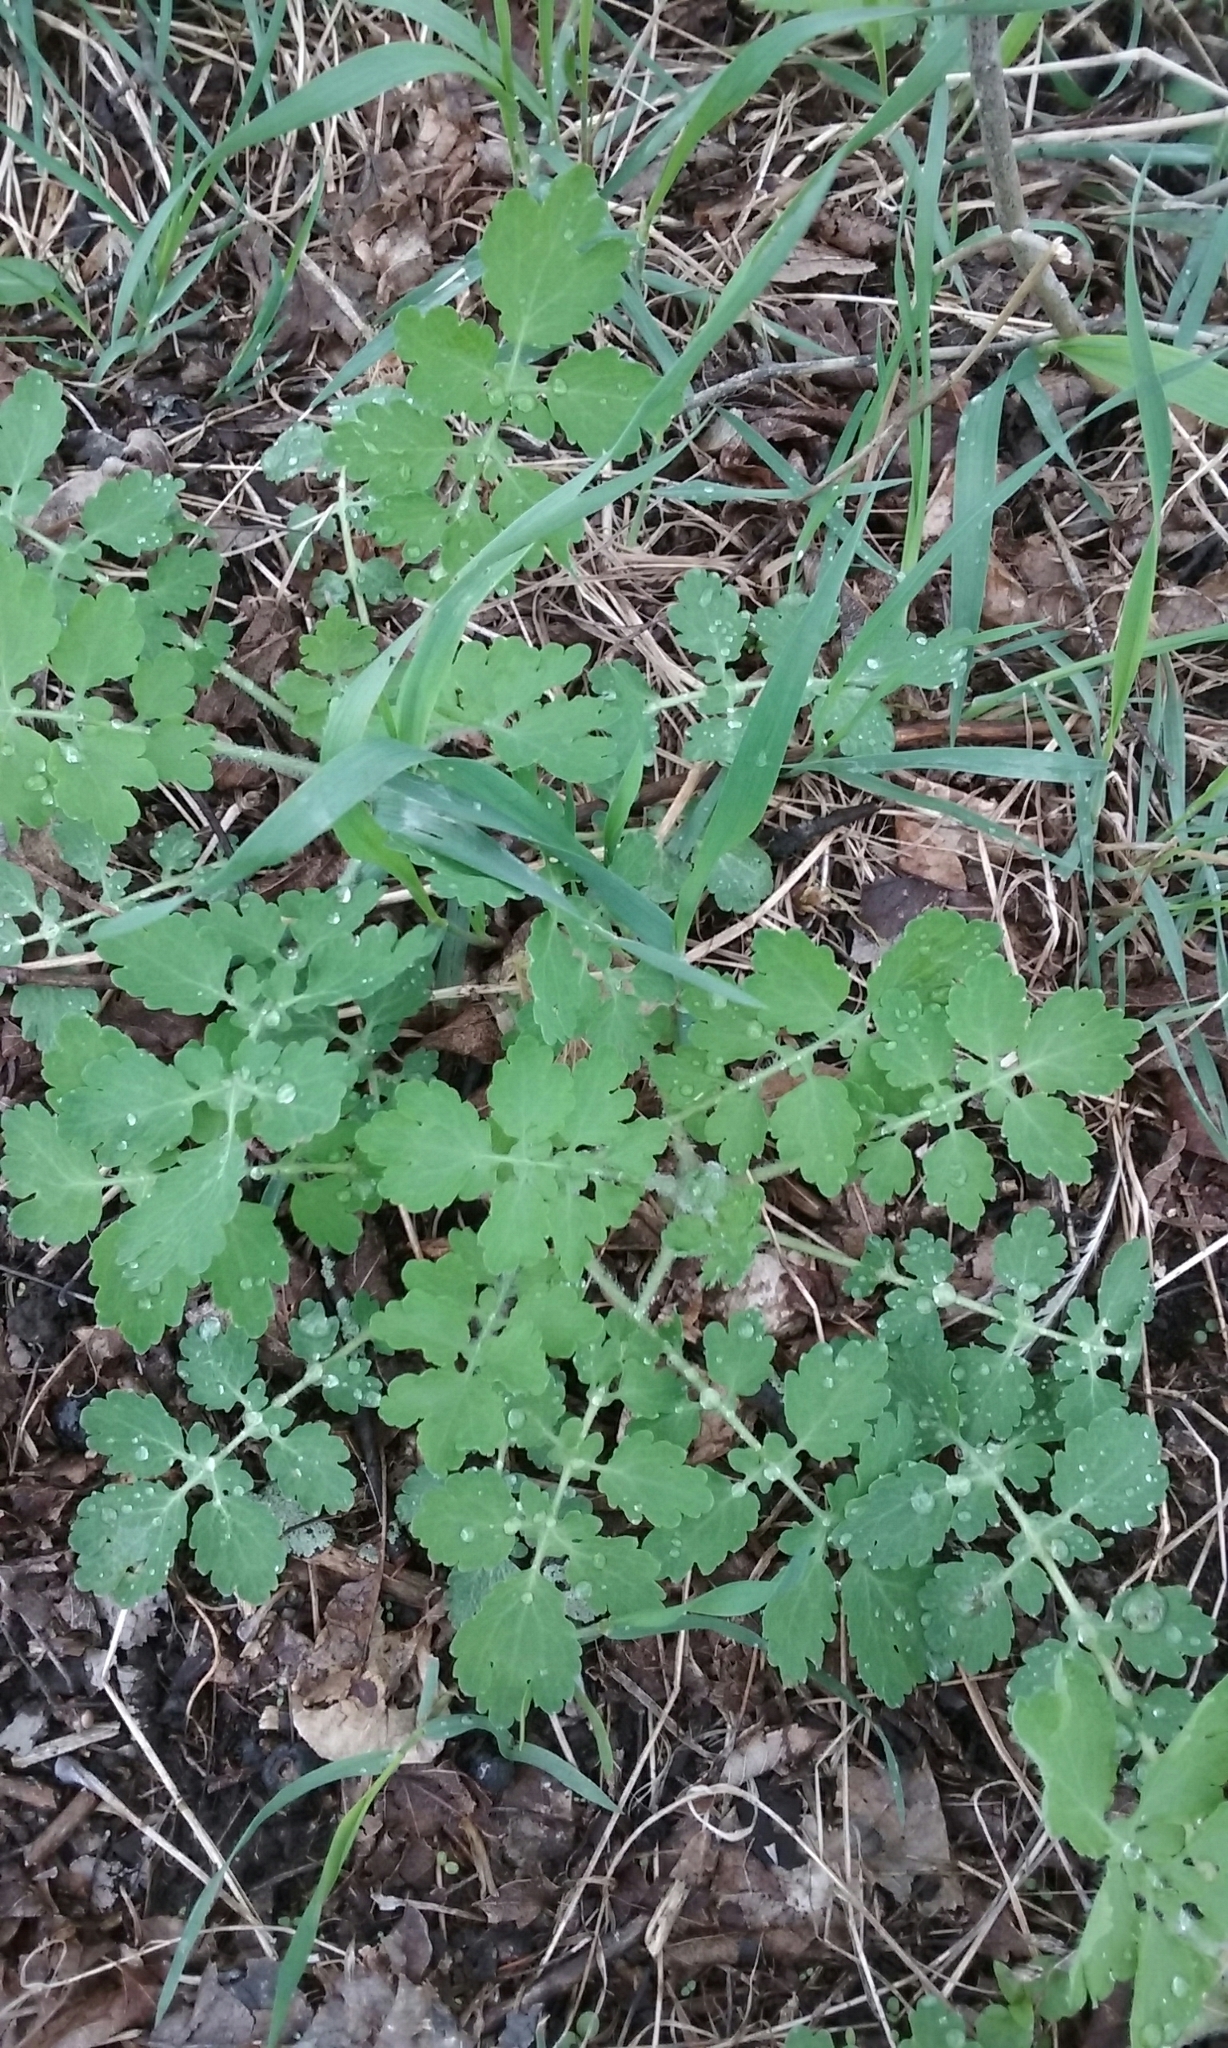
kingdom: Plantae
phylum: Tracheophyta
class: Magnoliopsida
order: Ranunculales
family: Papaveraceae
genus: Chelidonium
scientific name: Chelidonium majus
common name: Greater celandine
